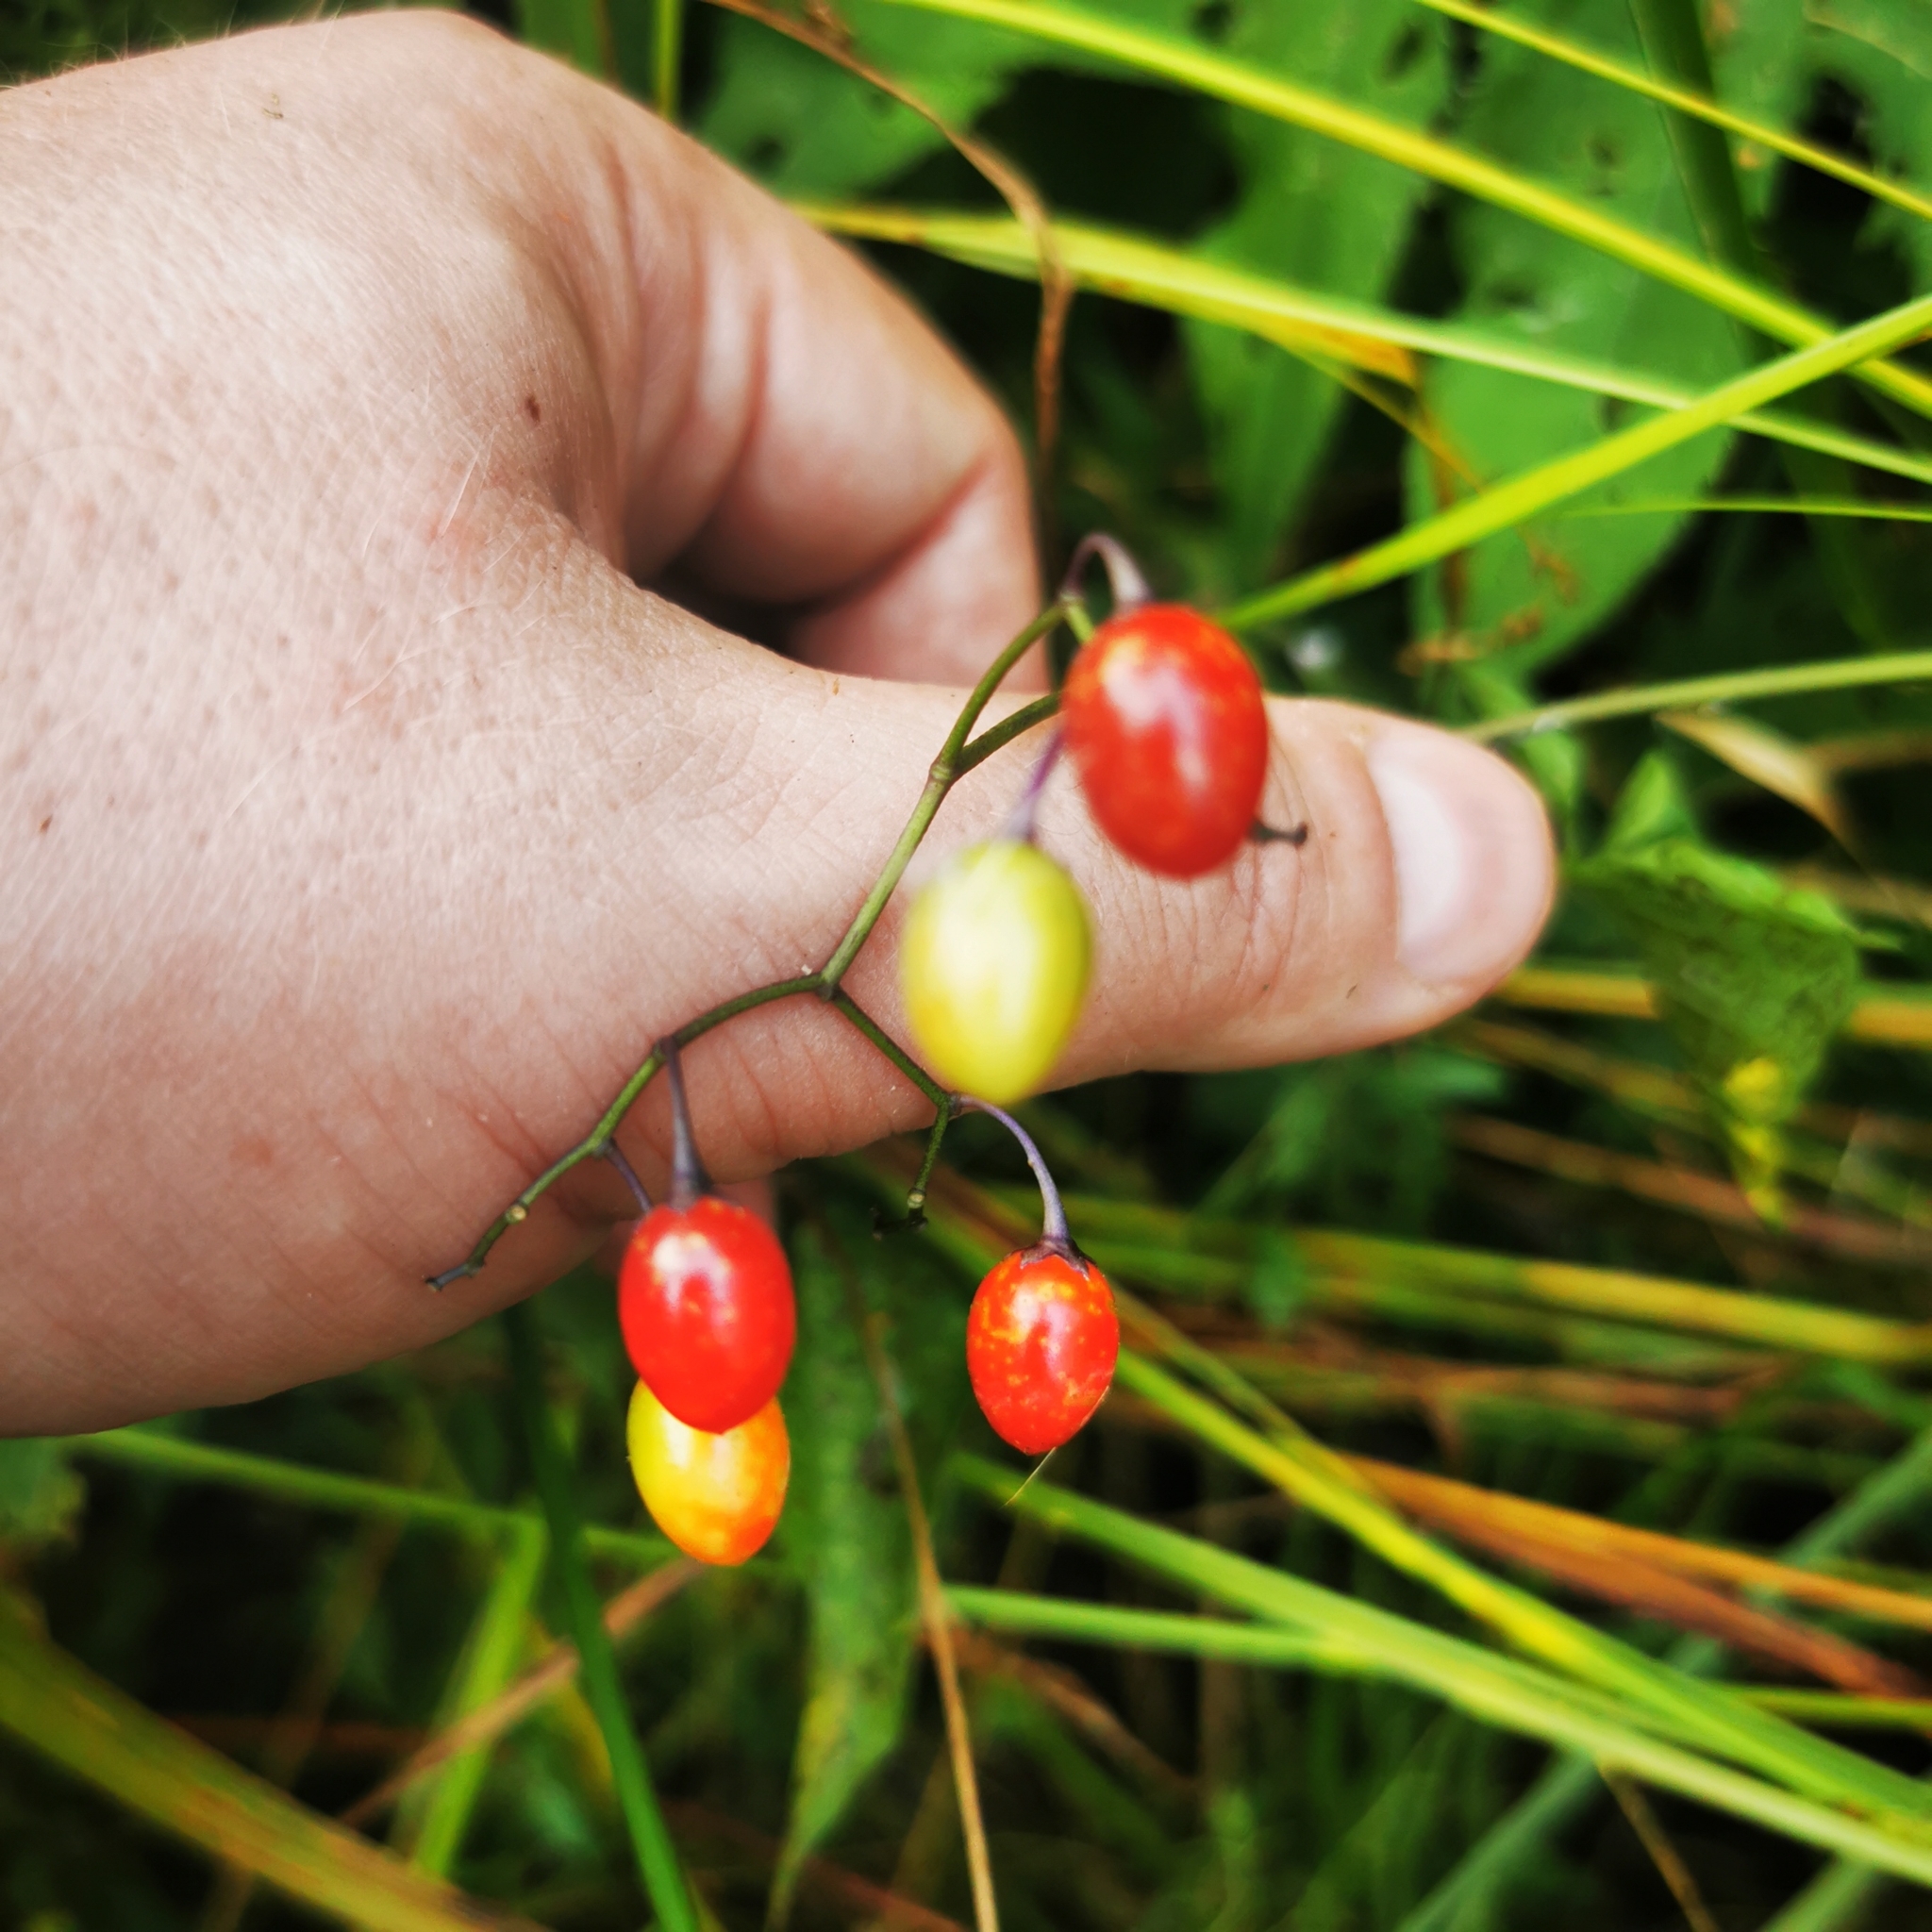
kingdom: Plantae
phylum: Tracheophyta
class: Magnoliopsida
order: Solanales
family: Solanaceae
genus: Solanum
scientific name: Solanum dulcamara
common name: Climbing nightshade
